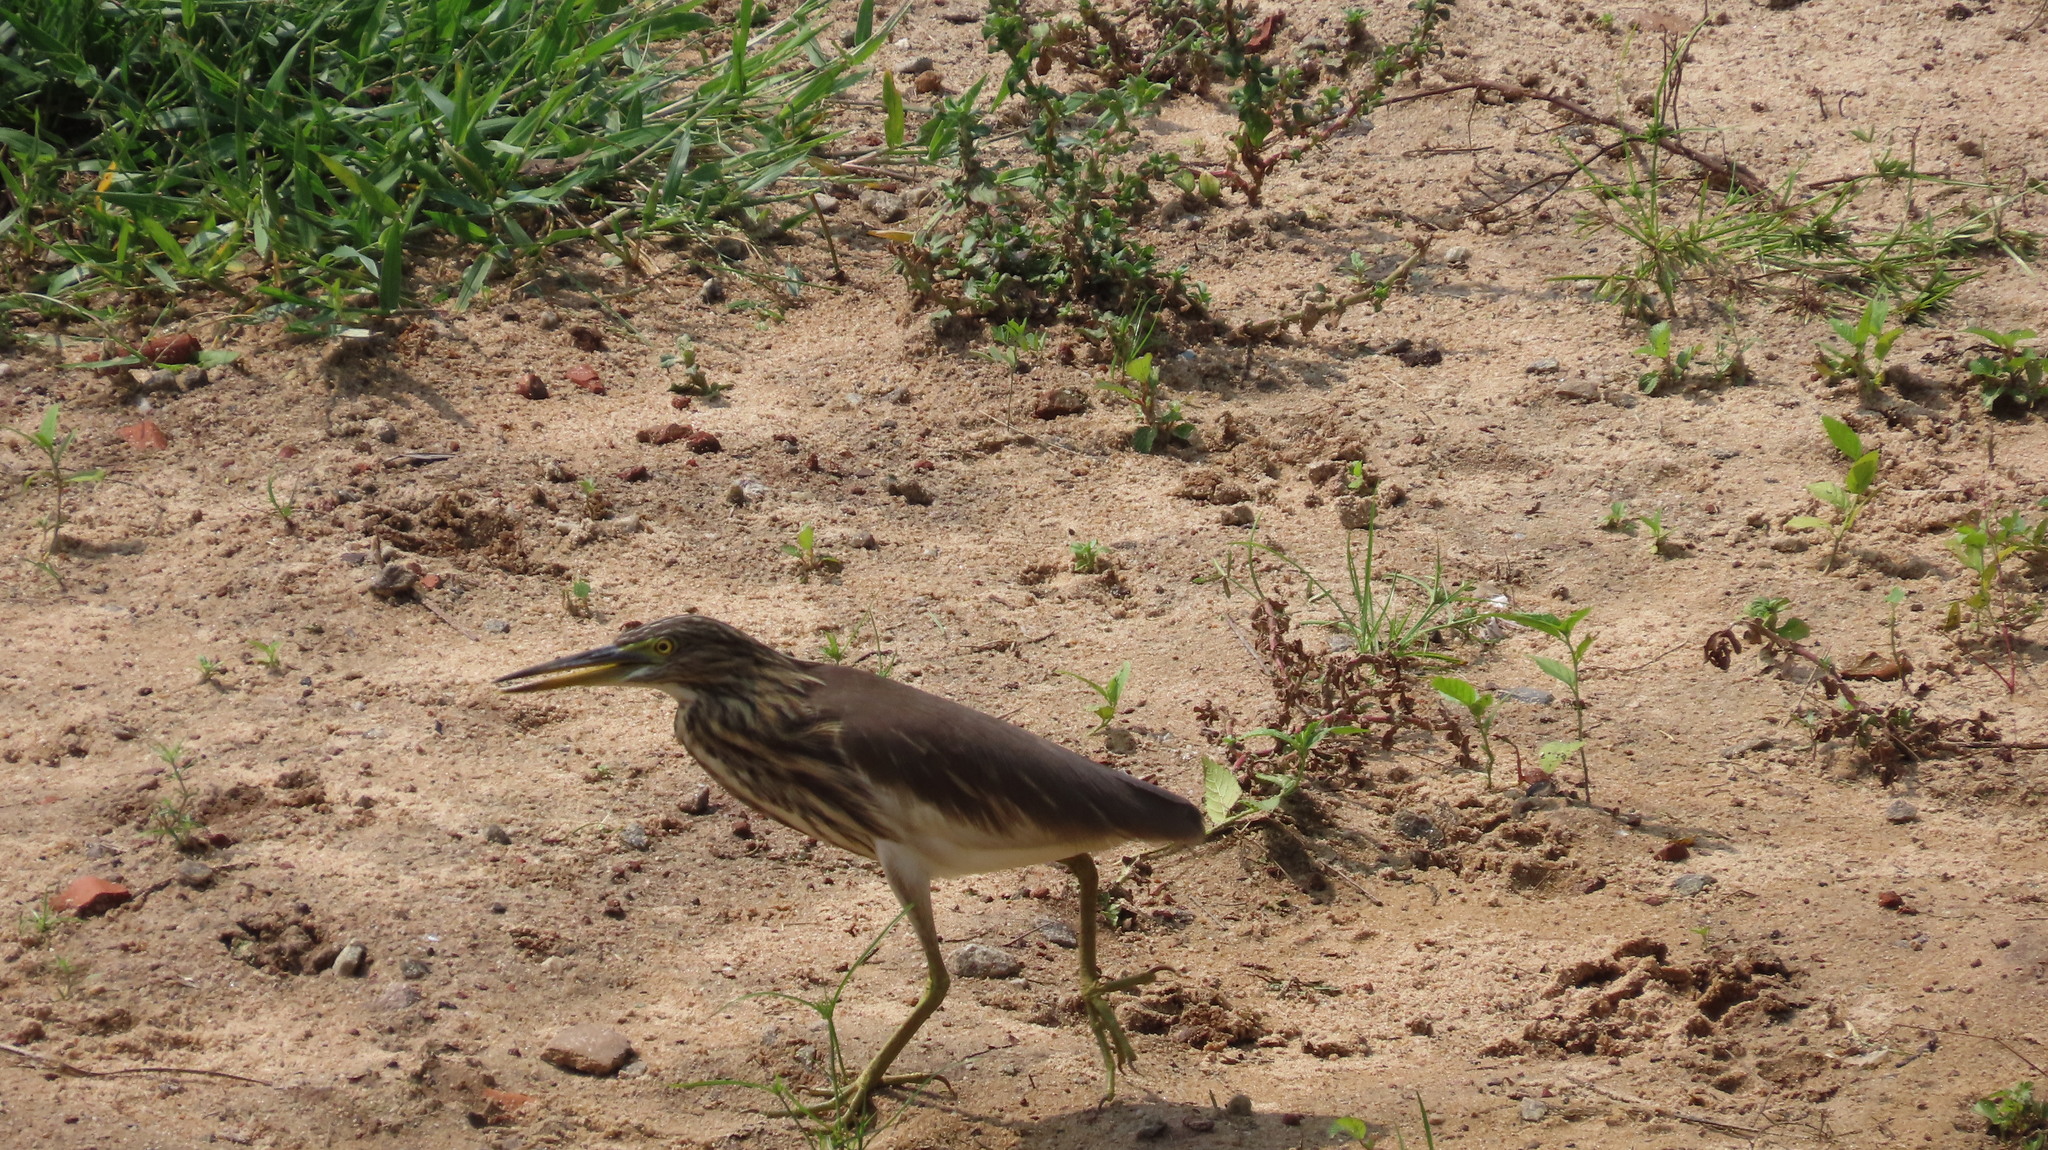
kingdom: Animalia
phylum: Chordata
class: Aves
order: Pelecaniformes
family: Ardeidae
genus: Ardeola
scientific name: Ardeola grayii
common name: Indian pond heron
